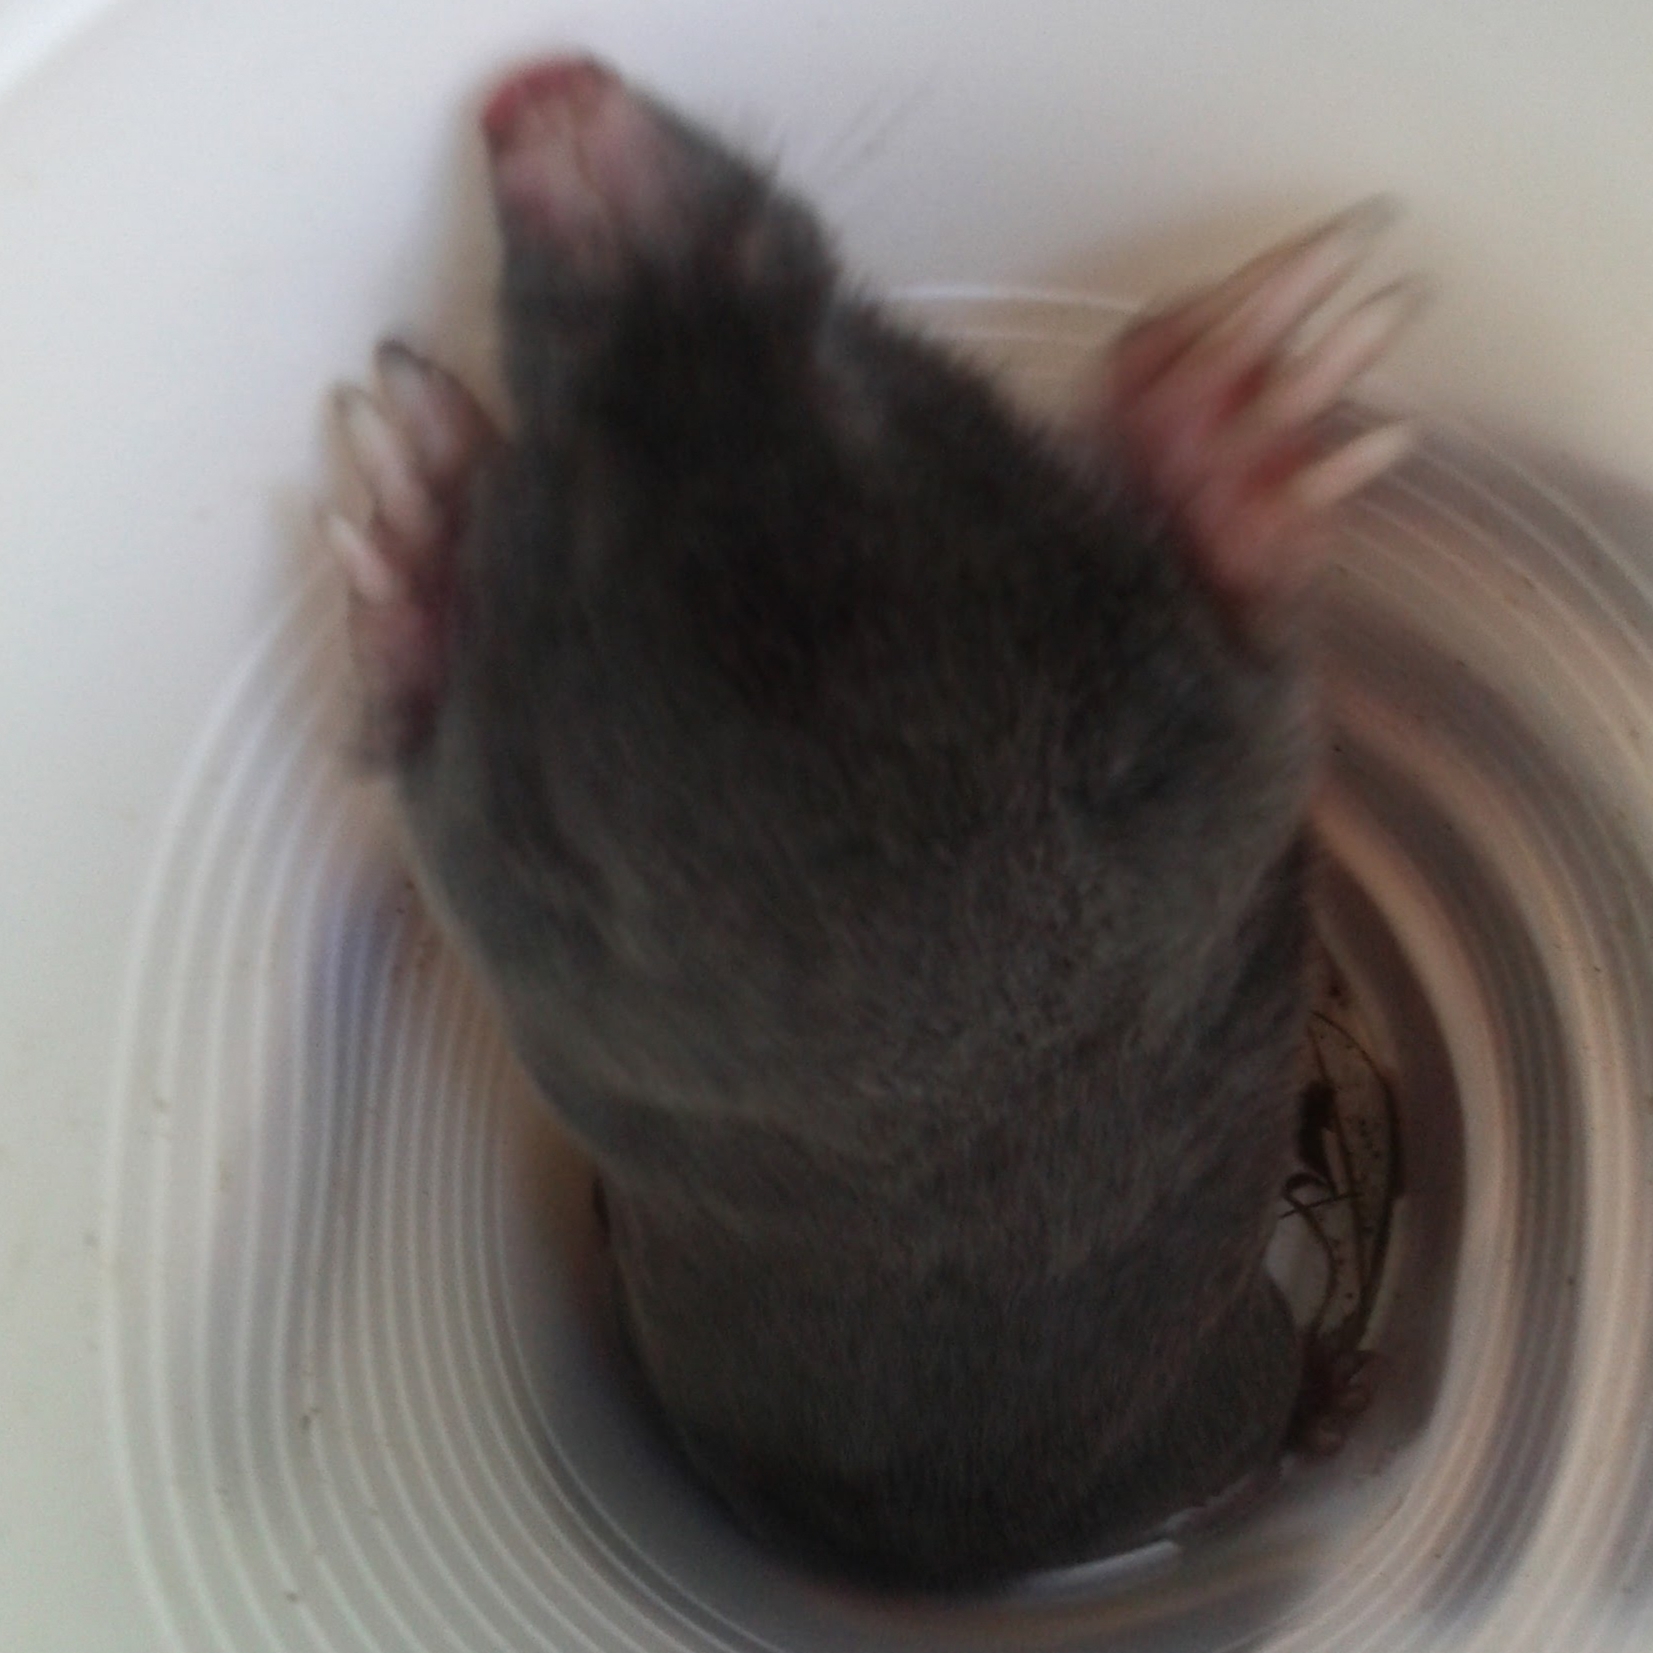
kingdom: Animalia
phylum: Chordata
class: Mammalia
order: Soricomorpha
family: Talpidae
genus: Talpa
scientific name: Talpa europaea
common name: European mole
